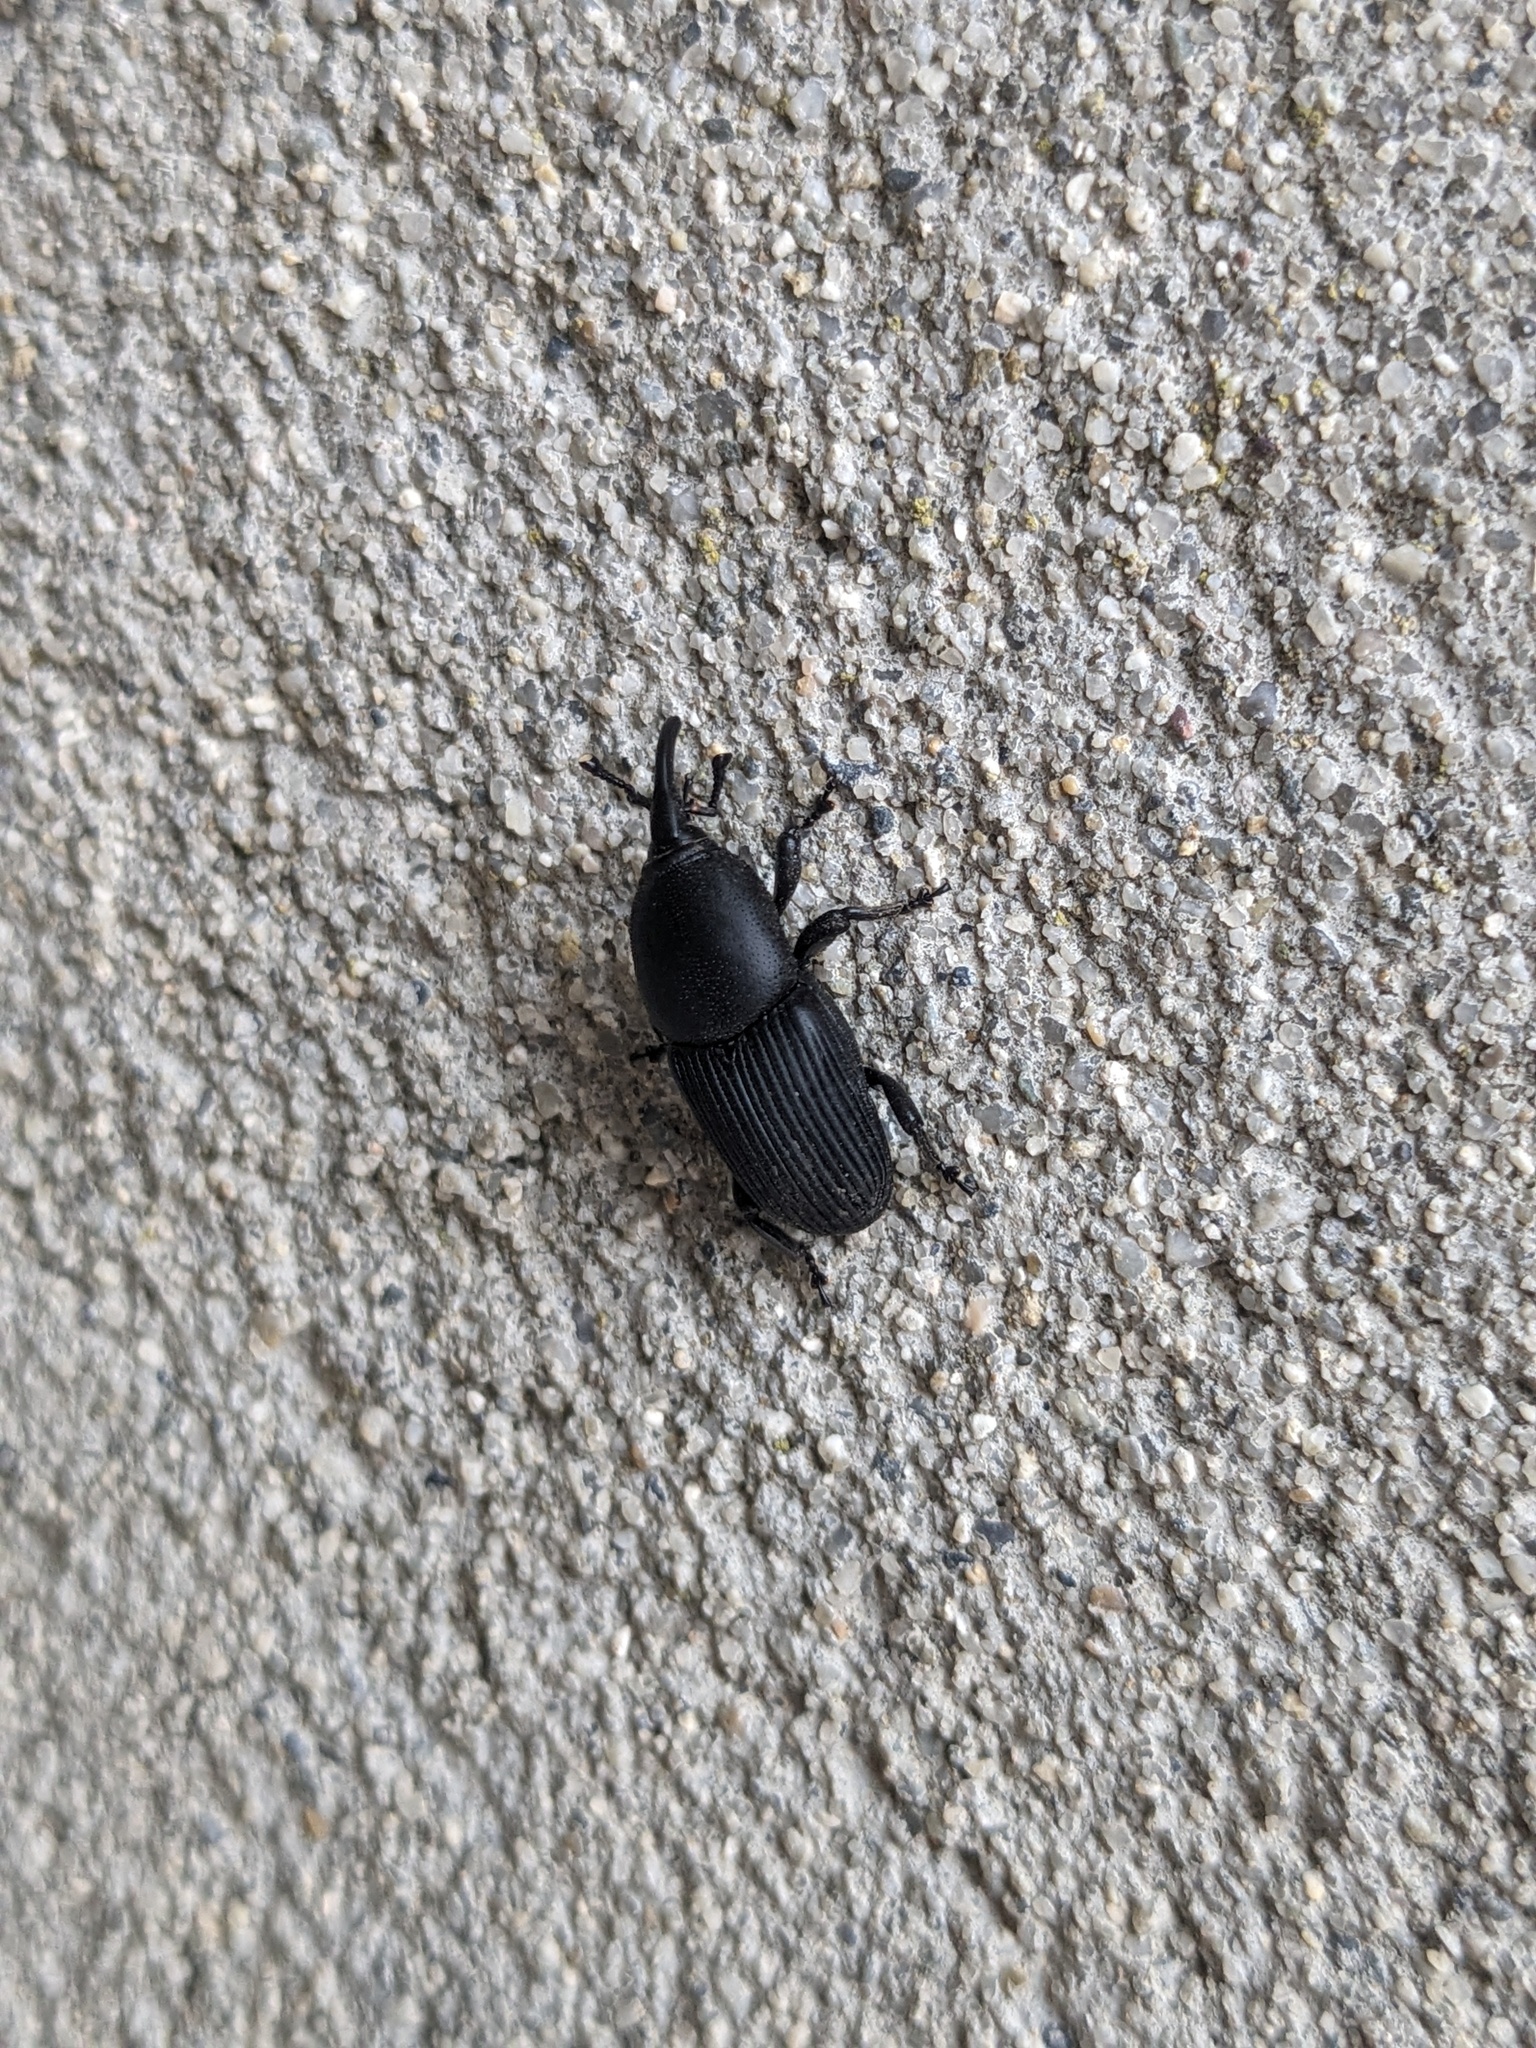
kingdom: Animalia
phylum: Arthropoda
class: Insecta
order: Coleoptera
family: Dryophthoridae
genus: Scyphophorus
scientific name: Scyphophorus acupunctatus
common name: Weevil
